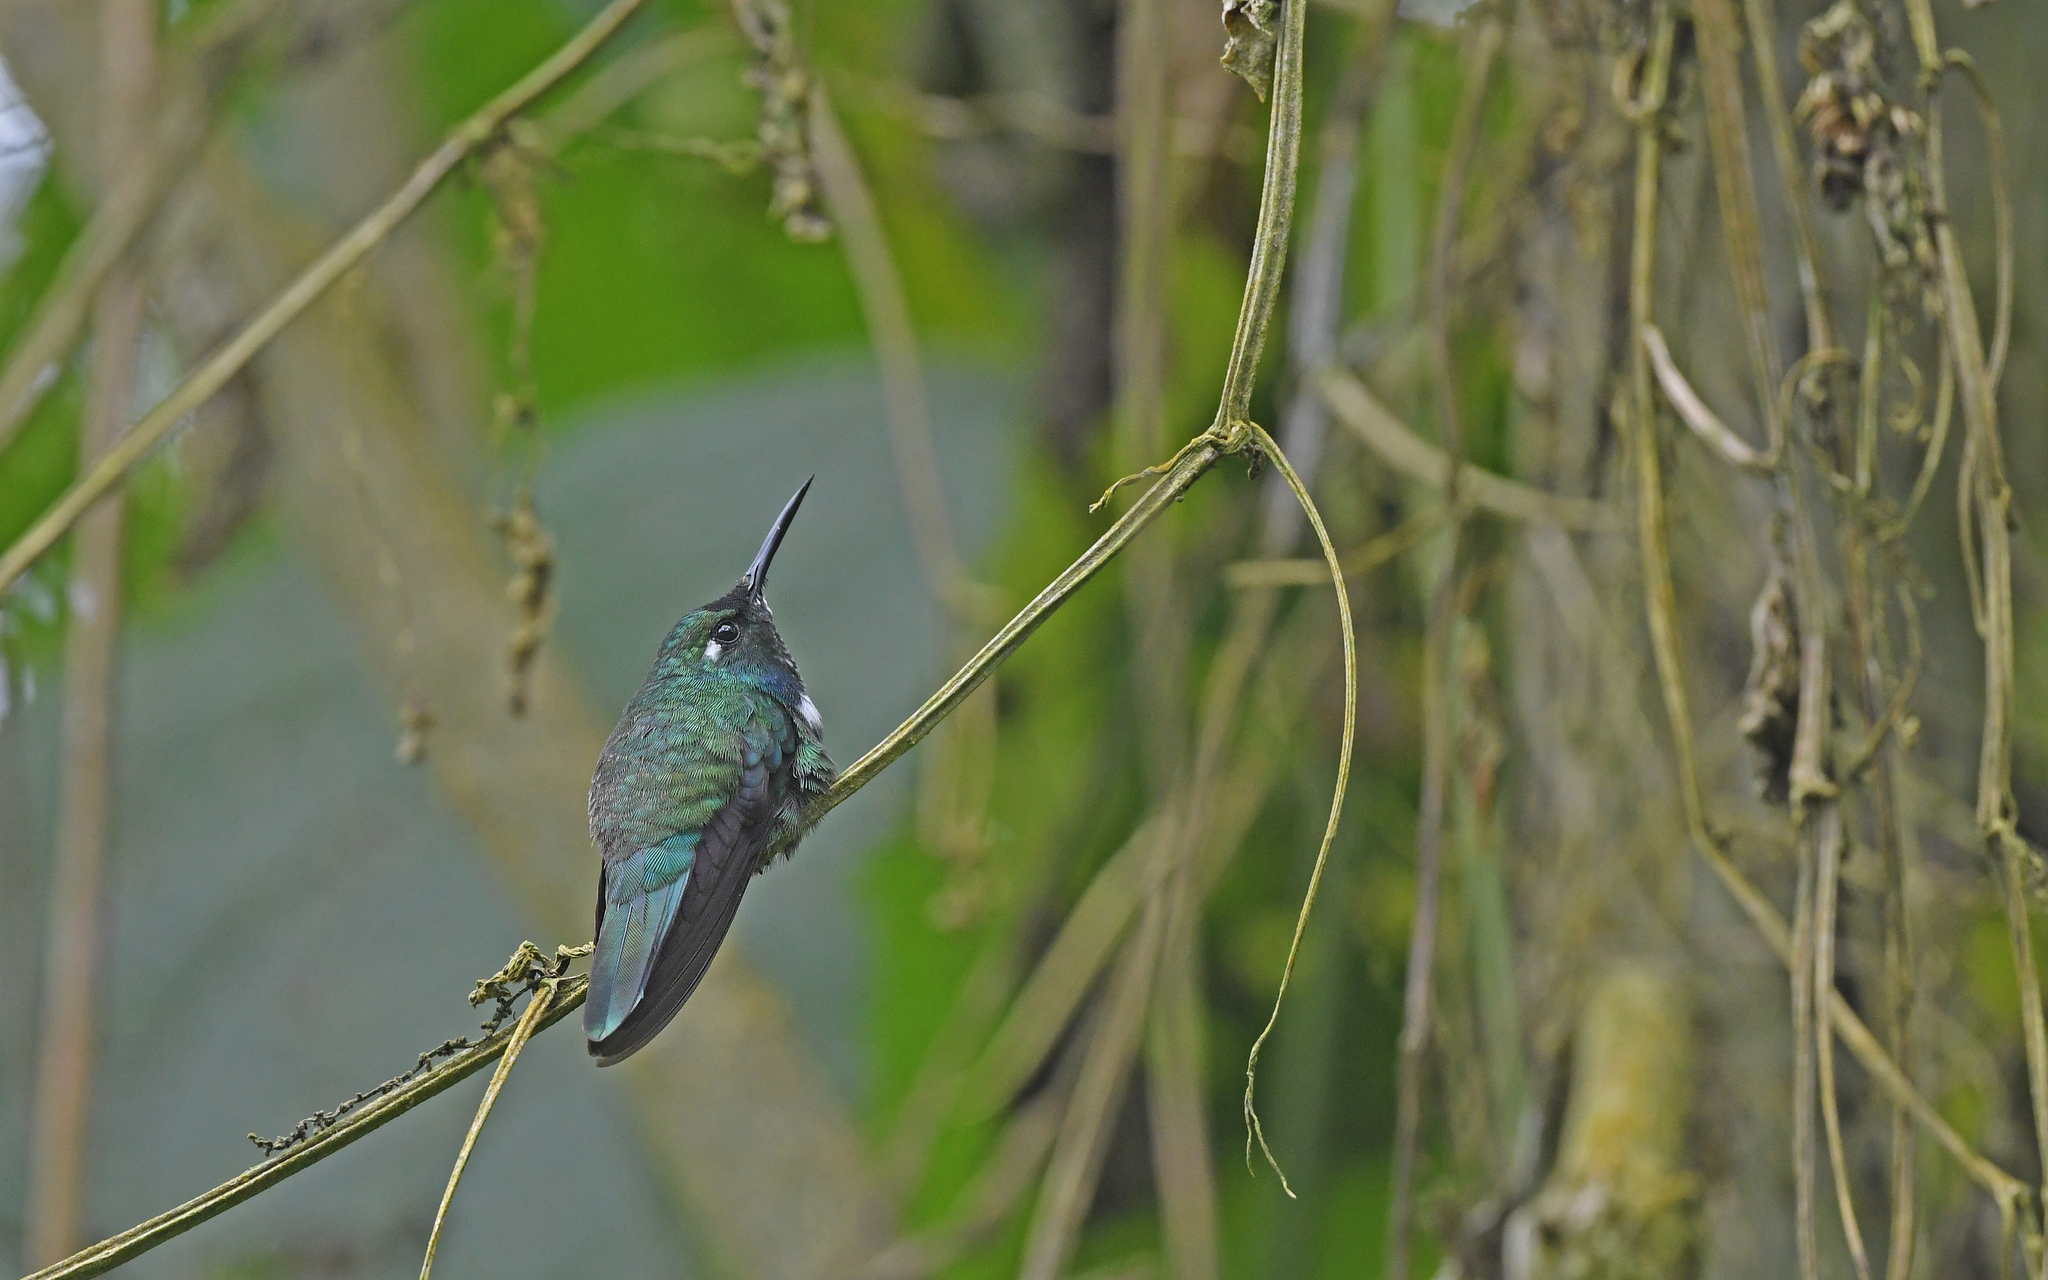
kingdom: Animalia
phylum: Chordata
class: Aves
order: Apodiformes
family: Trochilidae
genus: Schistes
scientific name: Schistes albogularis
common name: White-throated daggerbill
